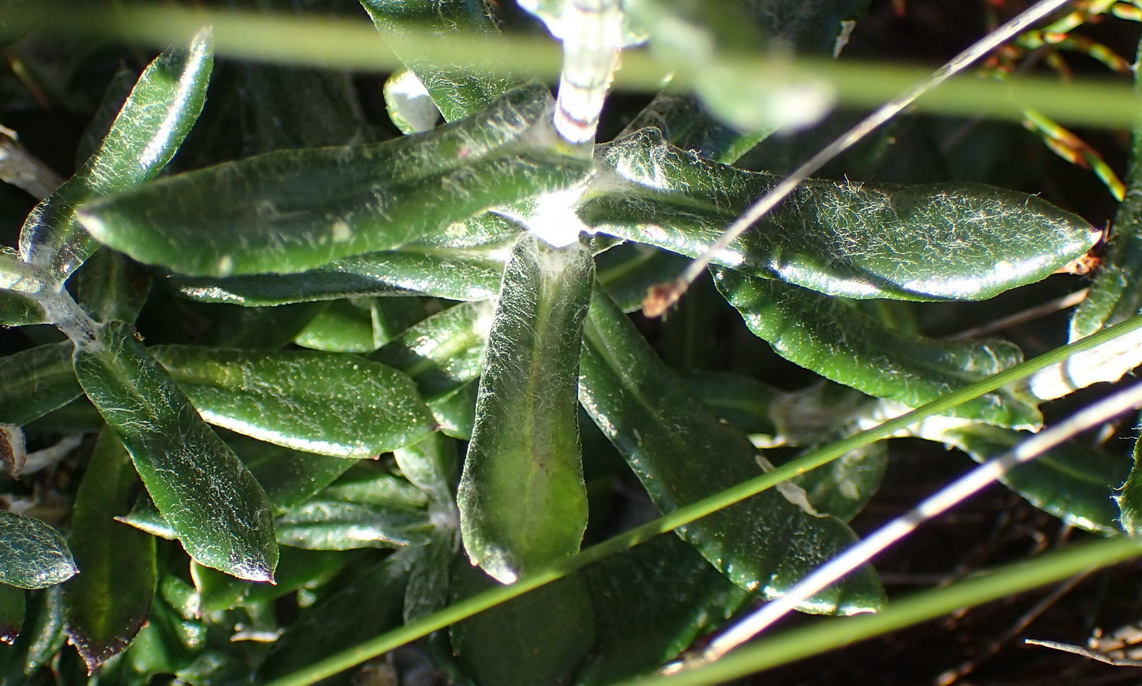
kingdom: Plantae
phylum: Tracheophyta
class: Magnoliopsida
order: Asterales
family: Asteraceae
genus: Senecio
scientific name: Senecio arniciflorus
